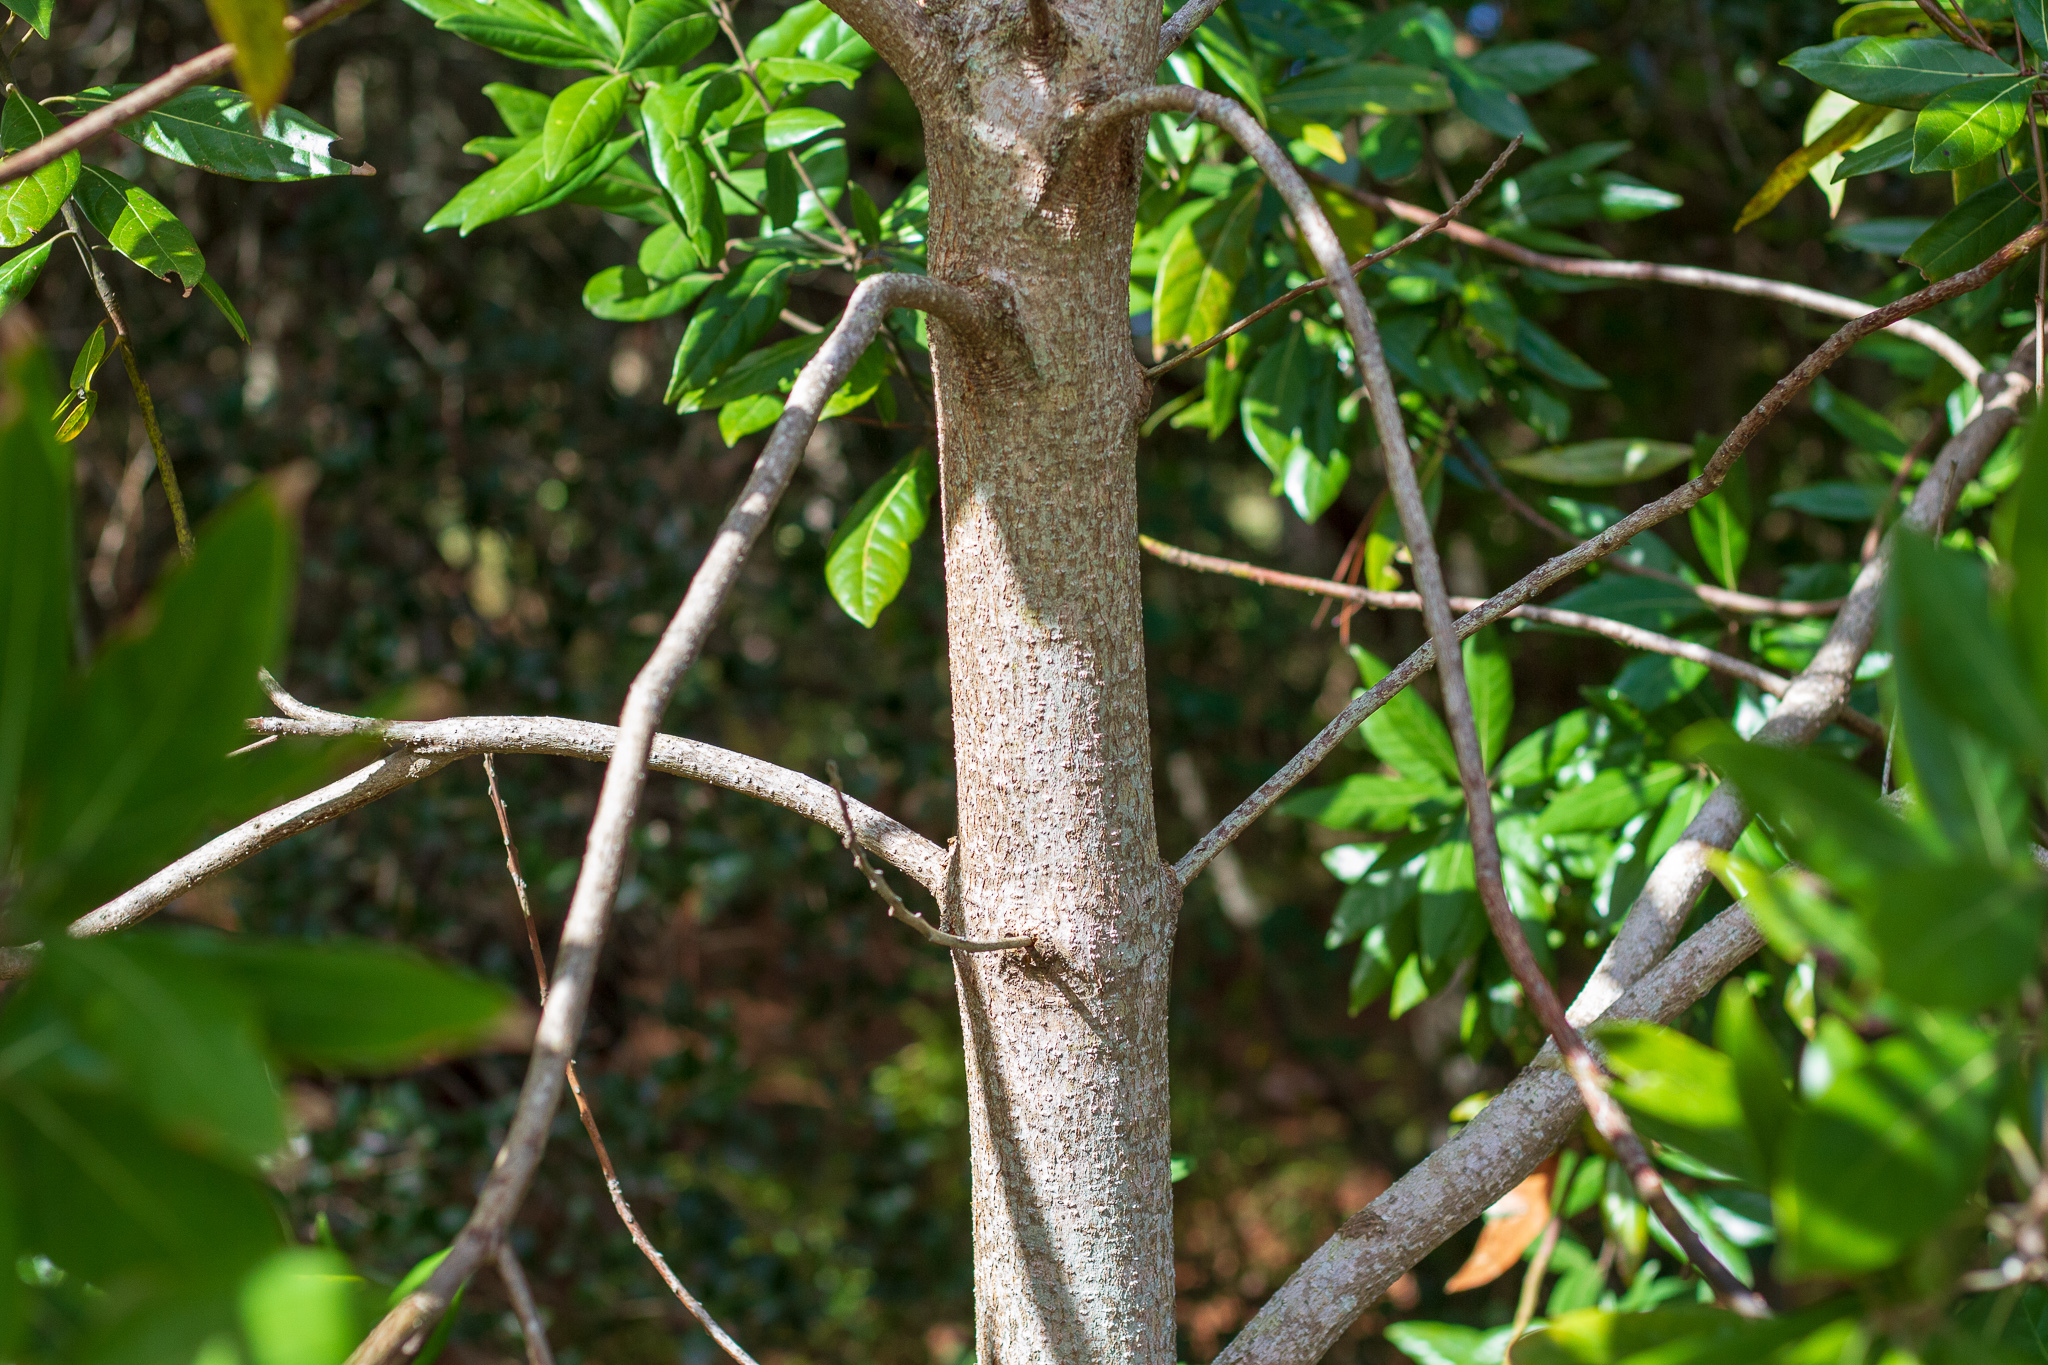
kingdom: Plantae
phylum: Tracheophyta
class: Magnoliopsida
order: Laurales
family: Lauraceae
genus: Persea
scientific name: Persea palustris
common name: Swampbay
